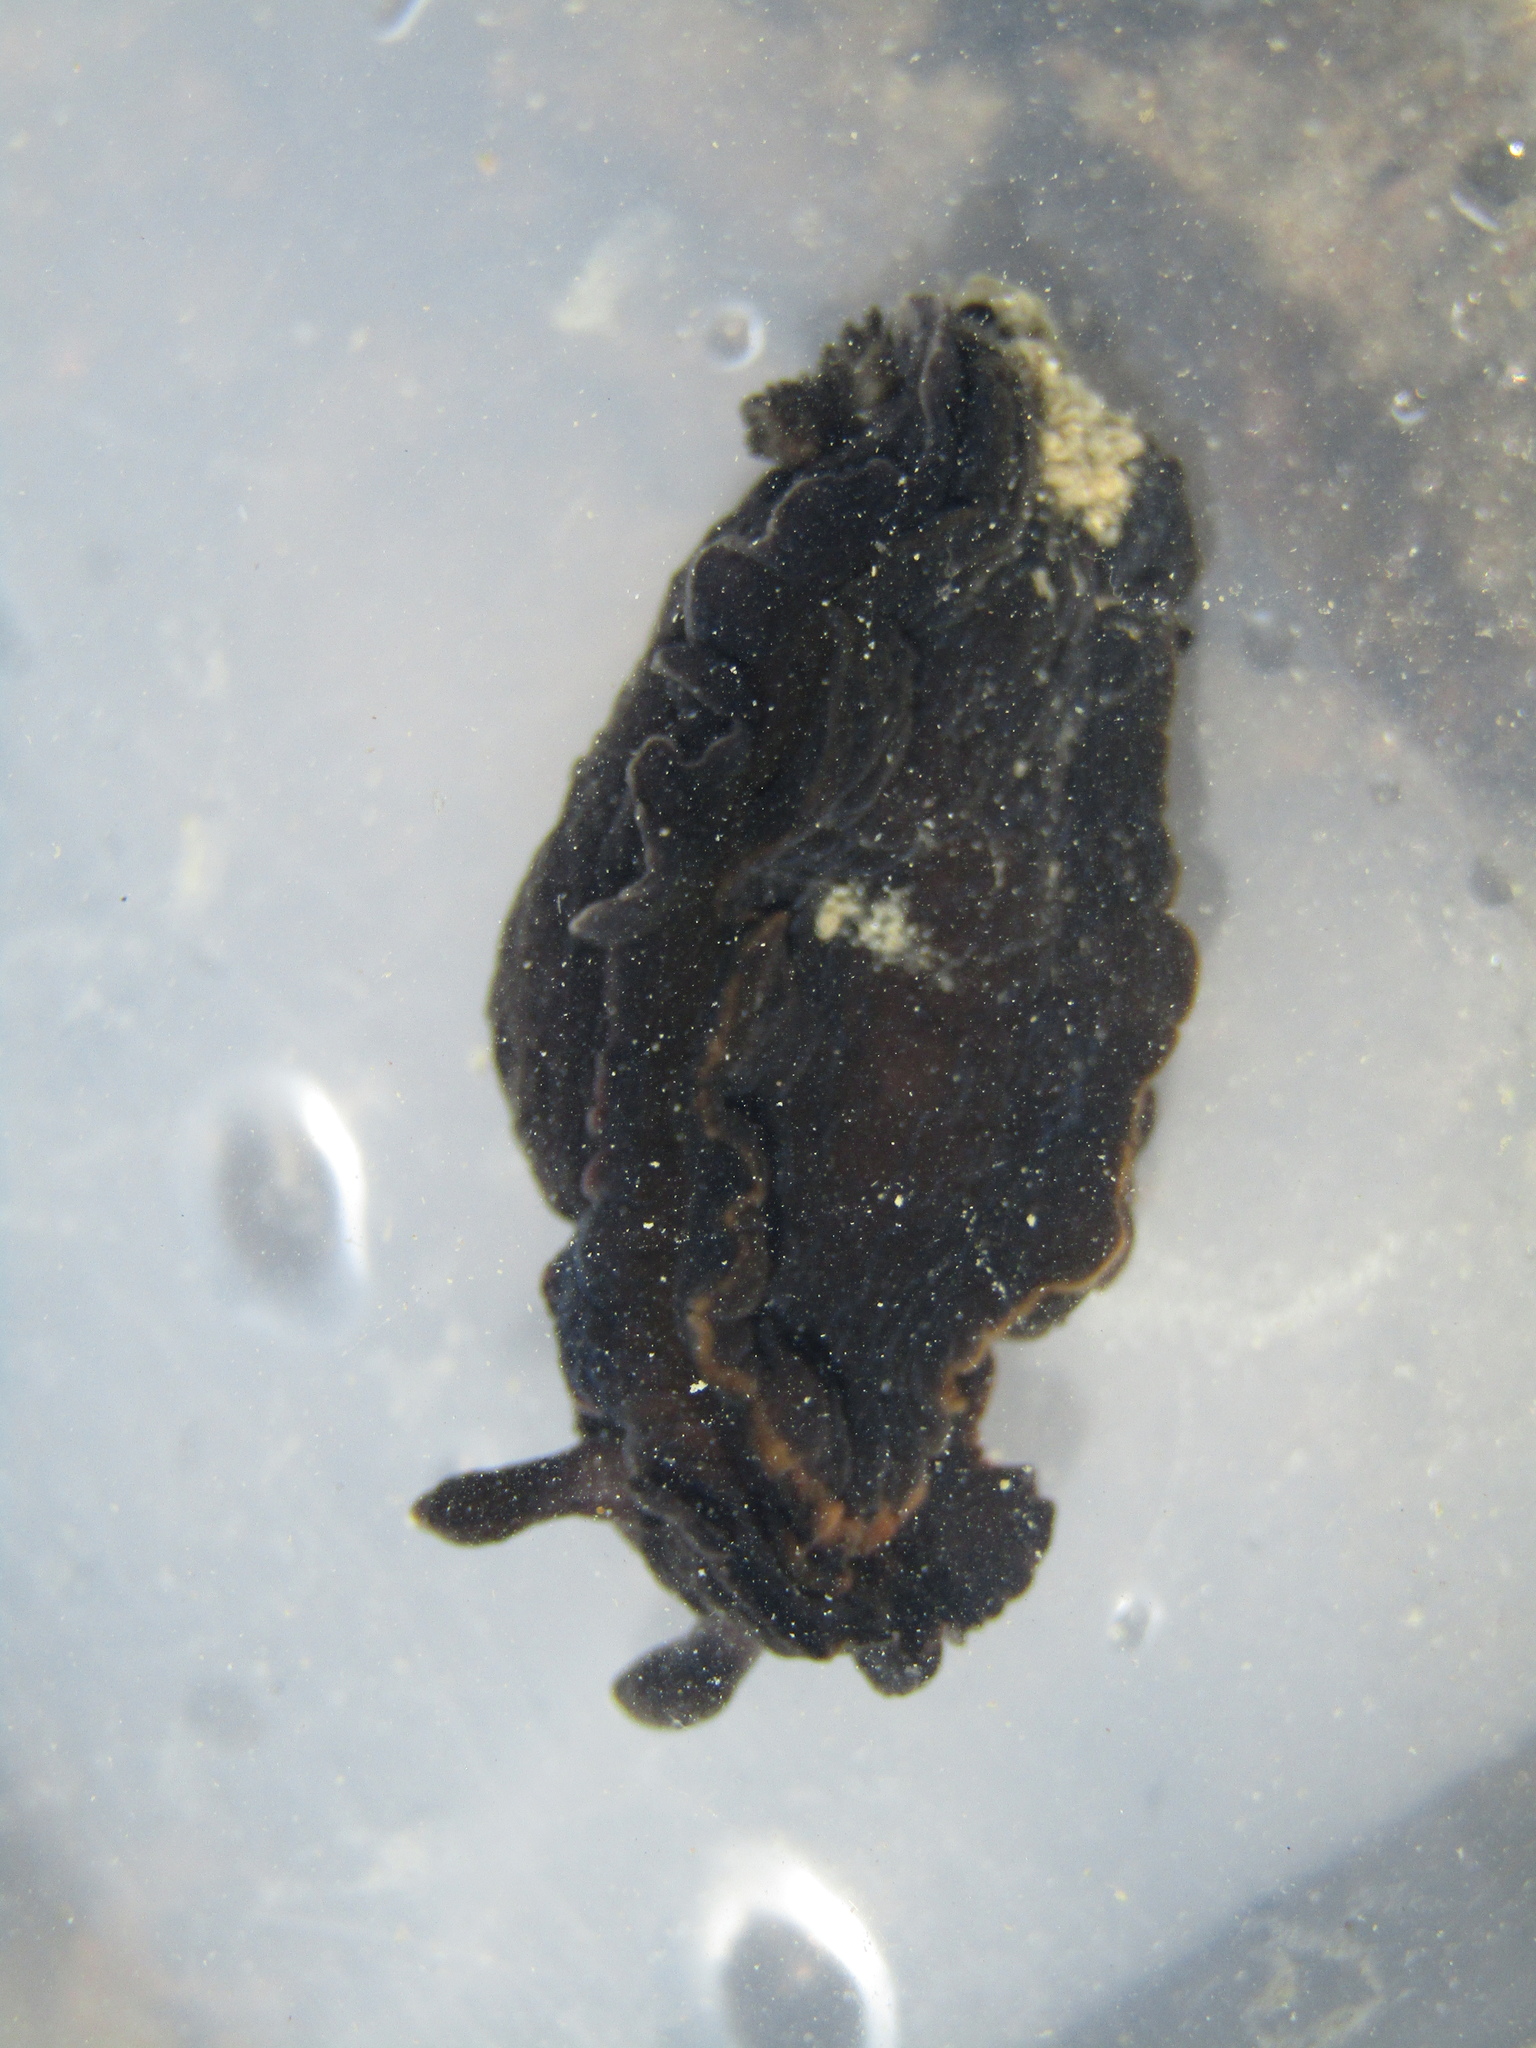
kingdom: Animalia
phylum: Mollusca
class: Gastropoda
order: Nudibranchia
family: Dendrodorididae
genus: Dendrodoris
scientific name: Dendrodoris nigra
